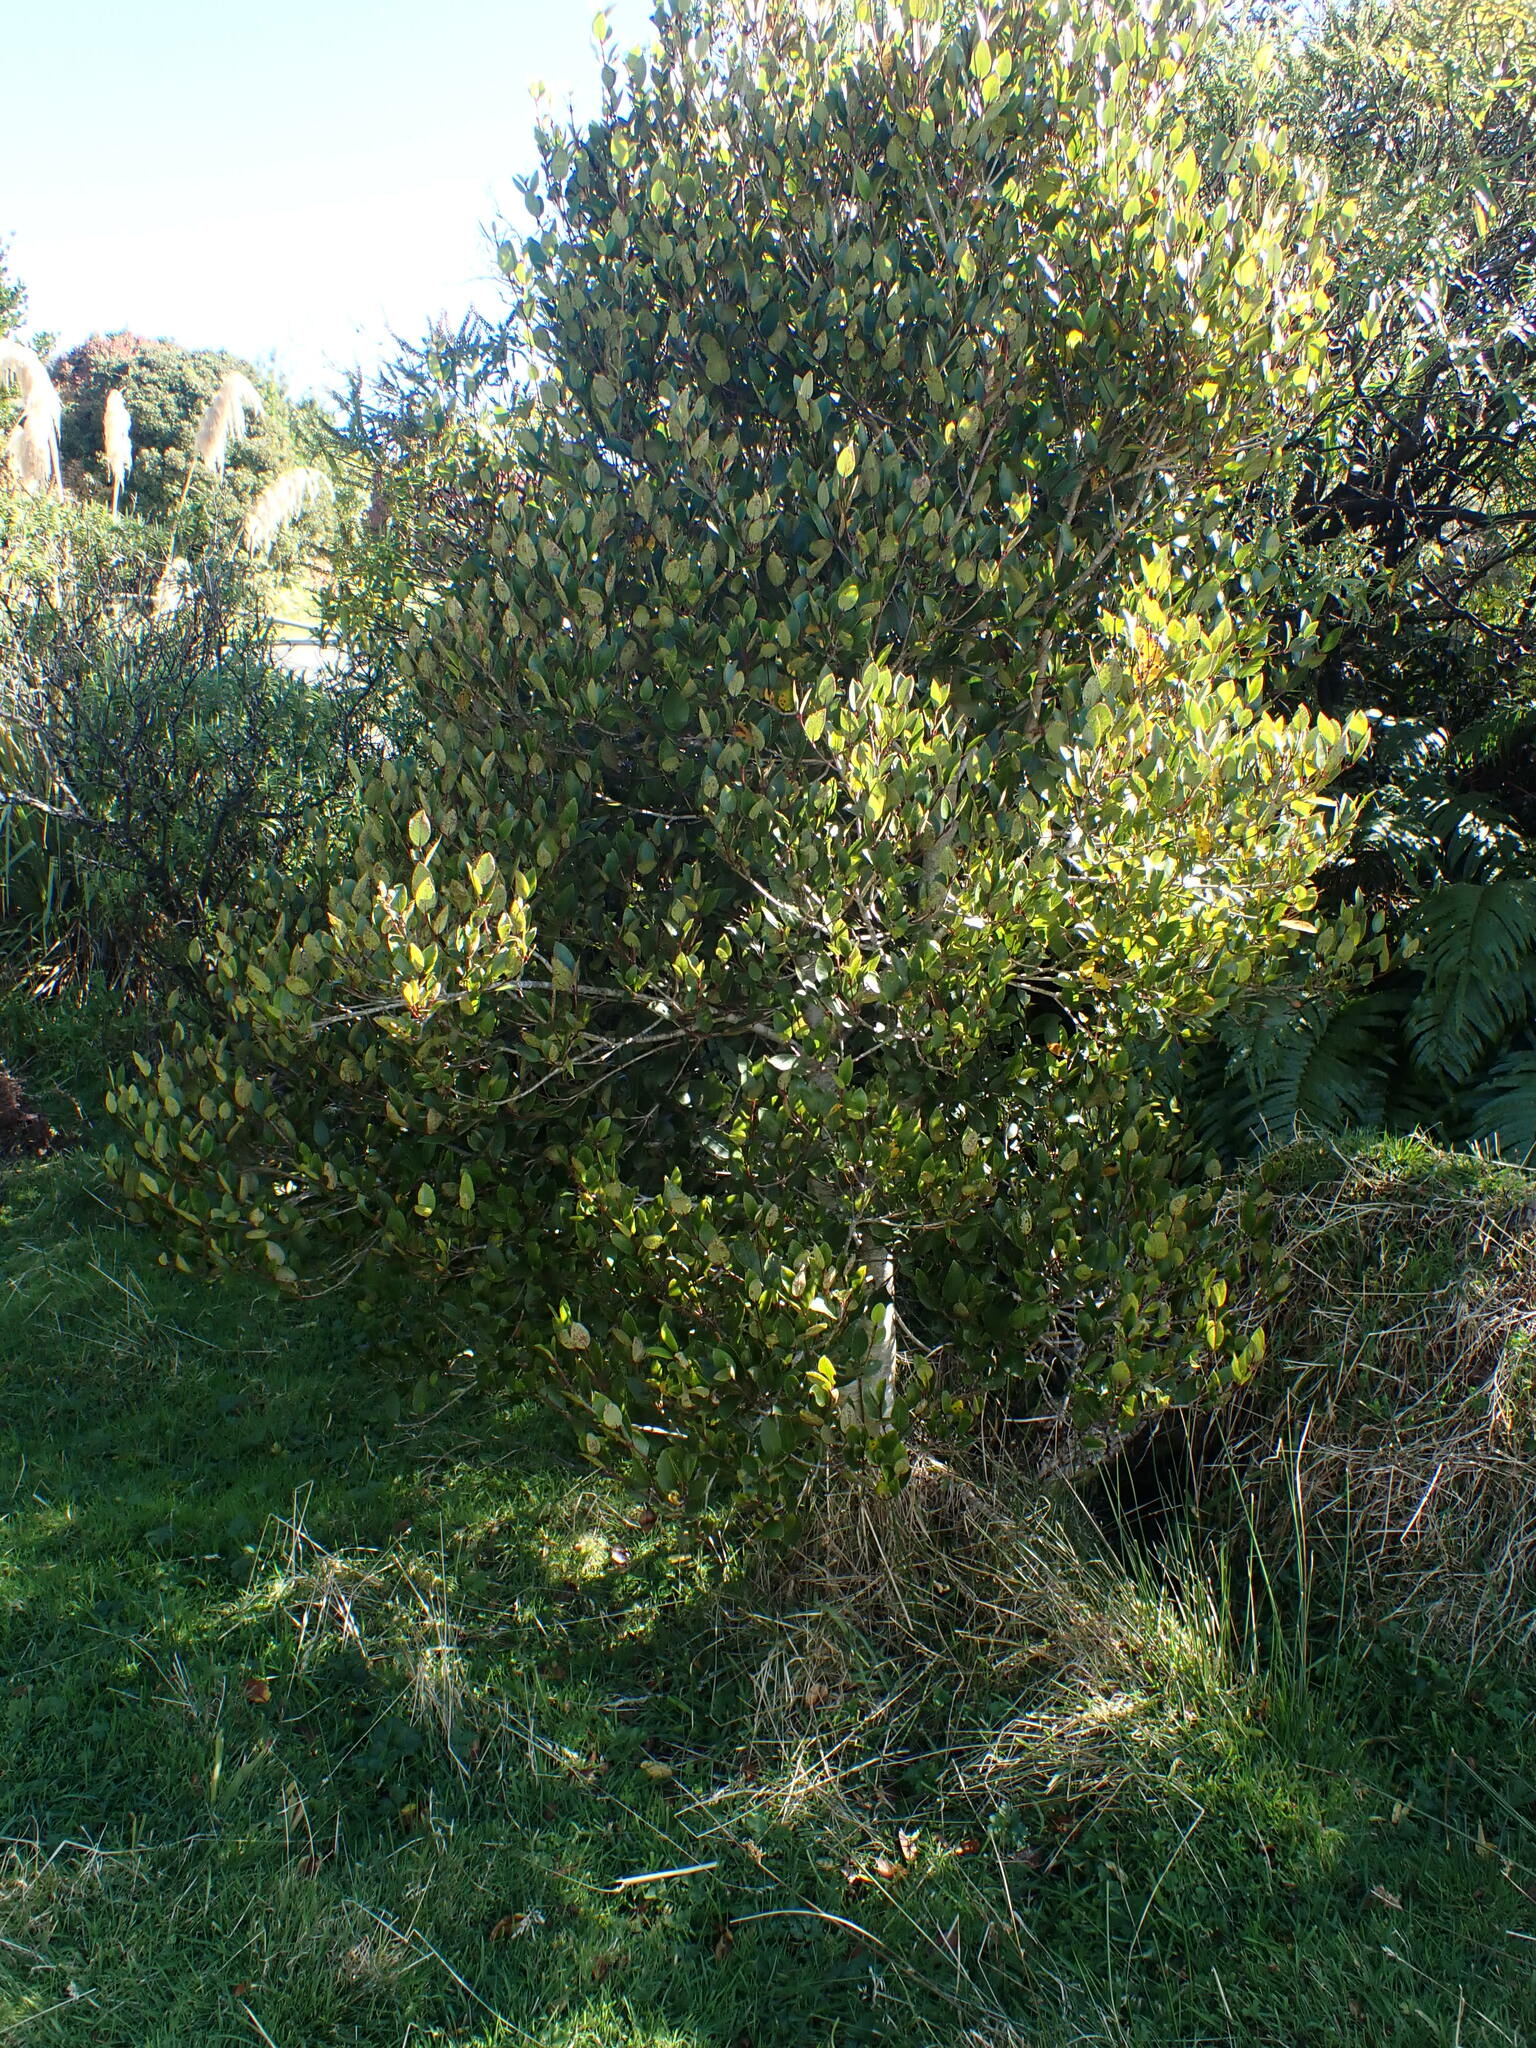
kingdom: Plantae
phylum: Tracheophyta
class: Magnoliopsida
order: Oxalidales
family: Cunoniaceae
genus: Pterophylla
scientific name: Pterophylla racemosa
